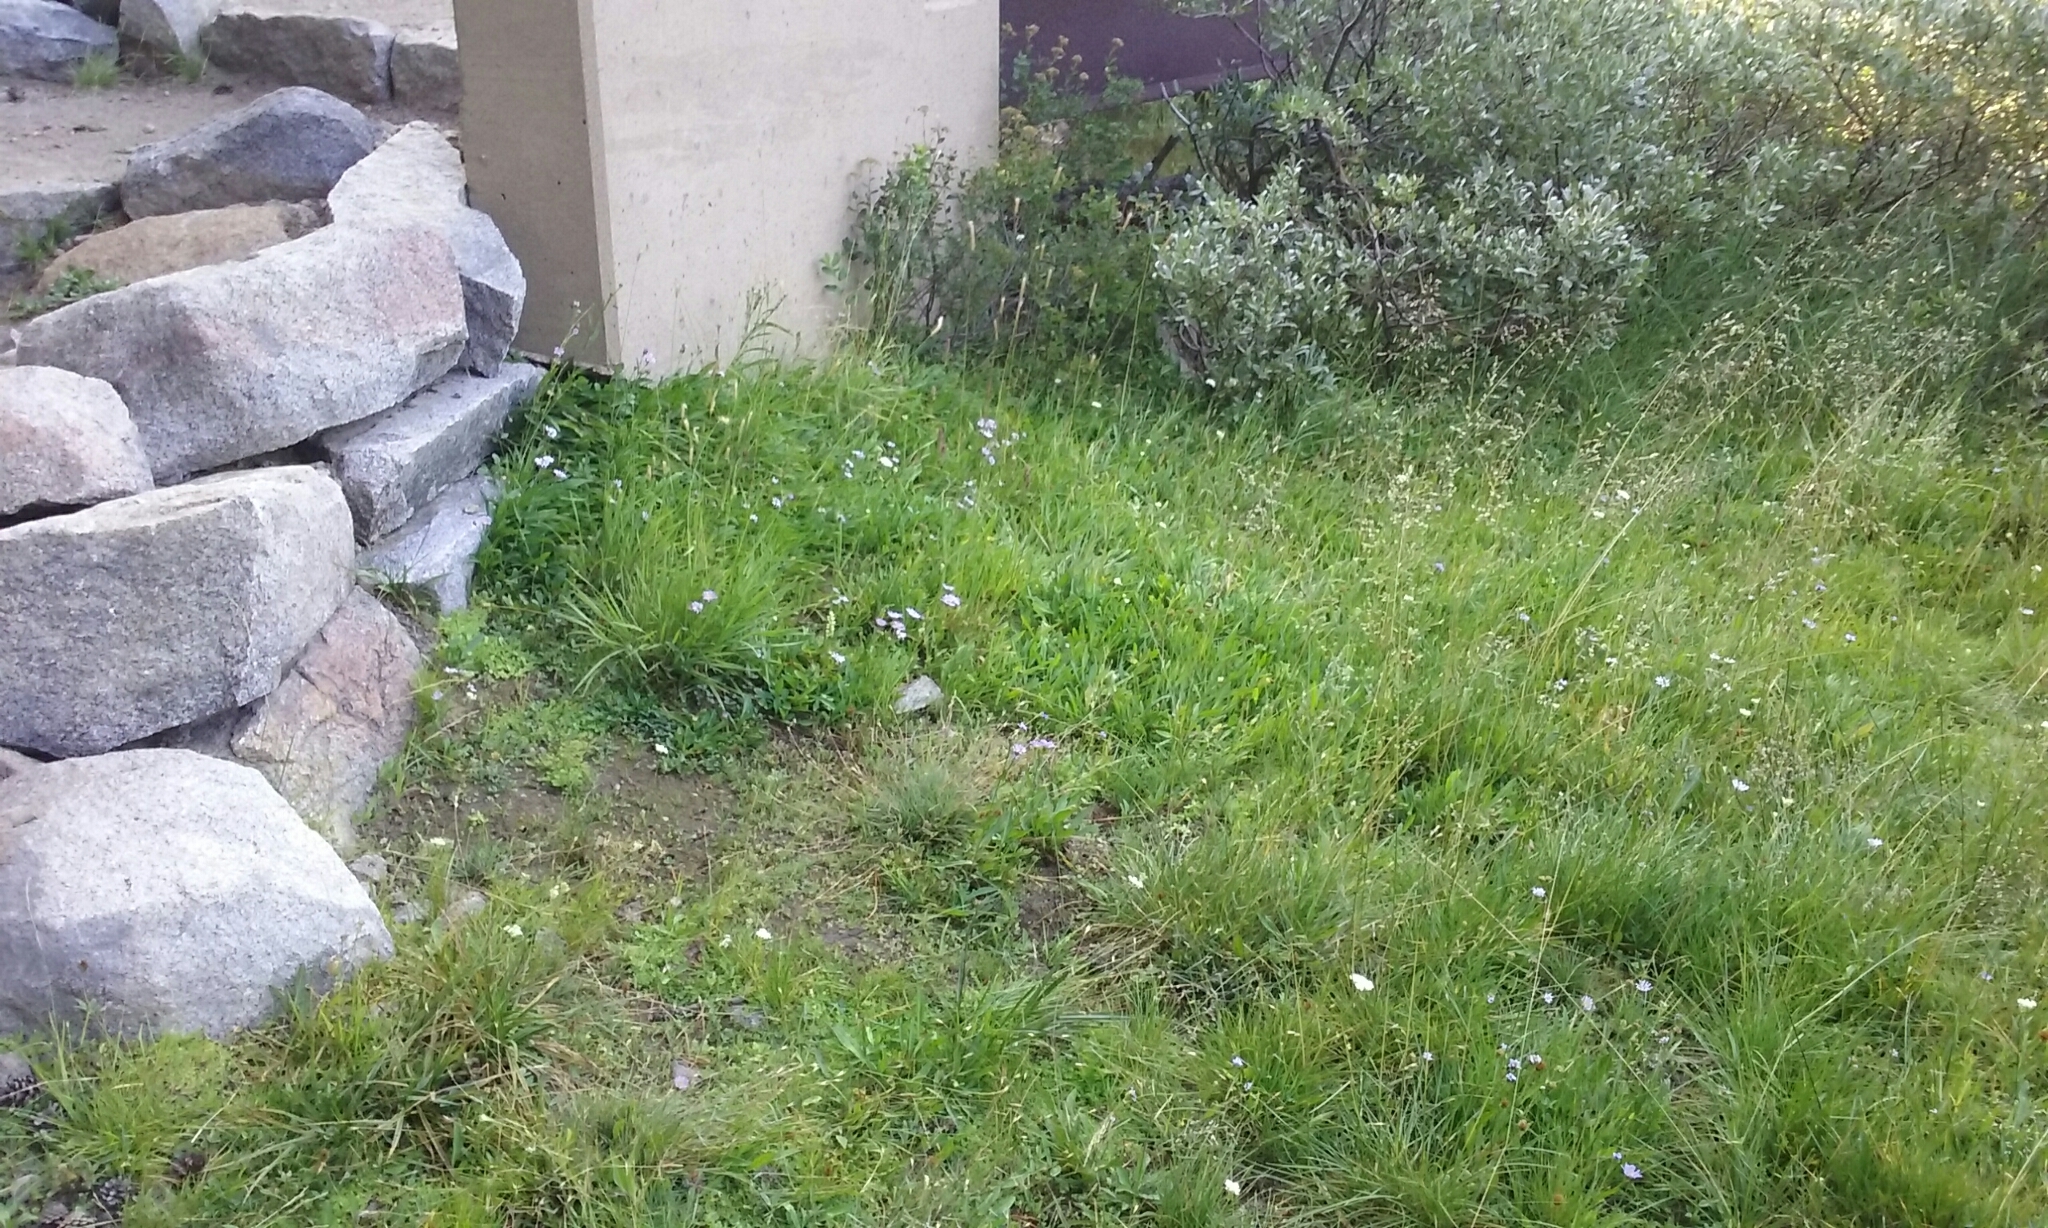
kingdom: Plantae
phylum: Tracheophyta
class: Liliopsida
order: Asparagales
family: Orchidaceae
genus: Spiranthes
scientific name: Spiranthes romanzoffiana
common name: Irish lady's-tresses
